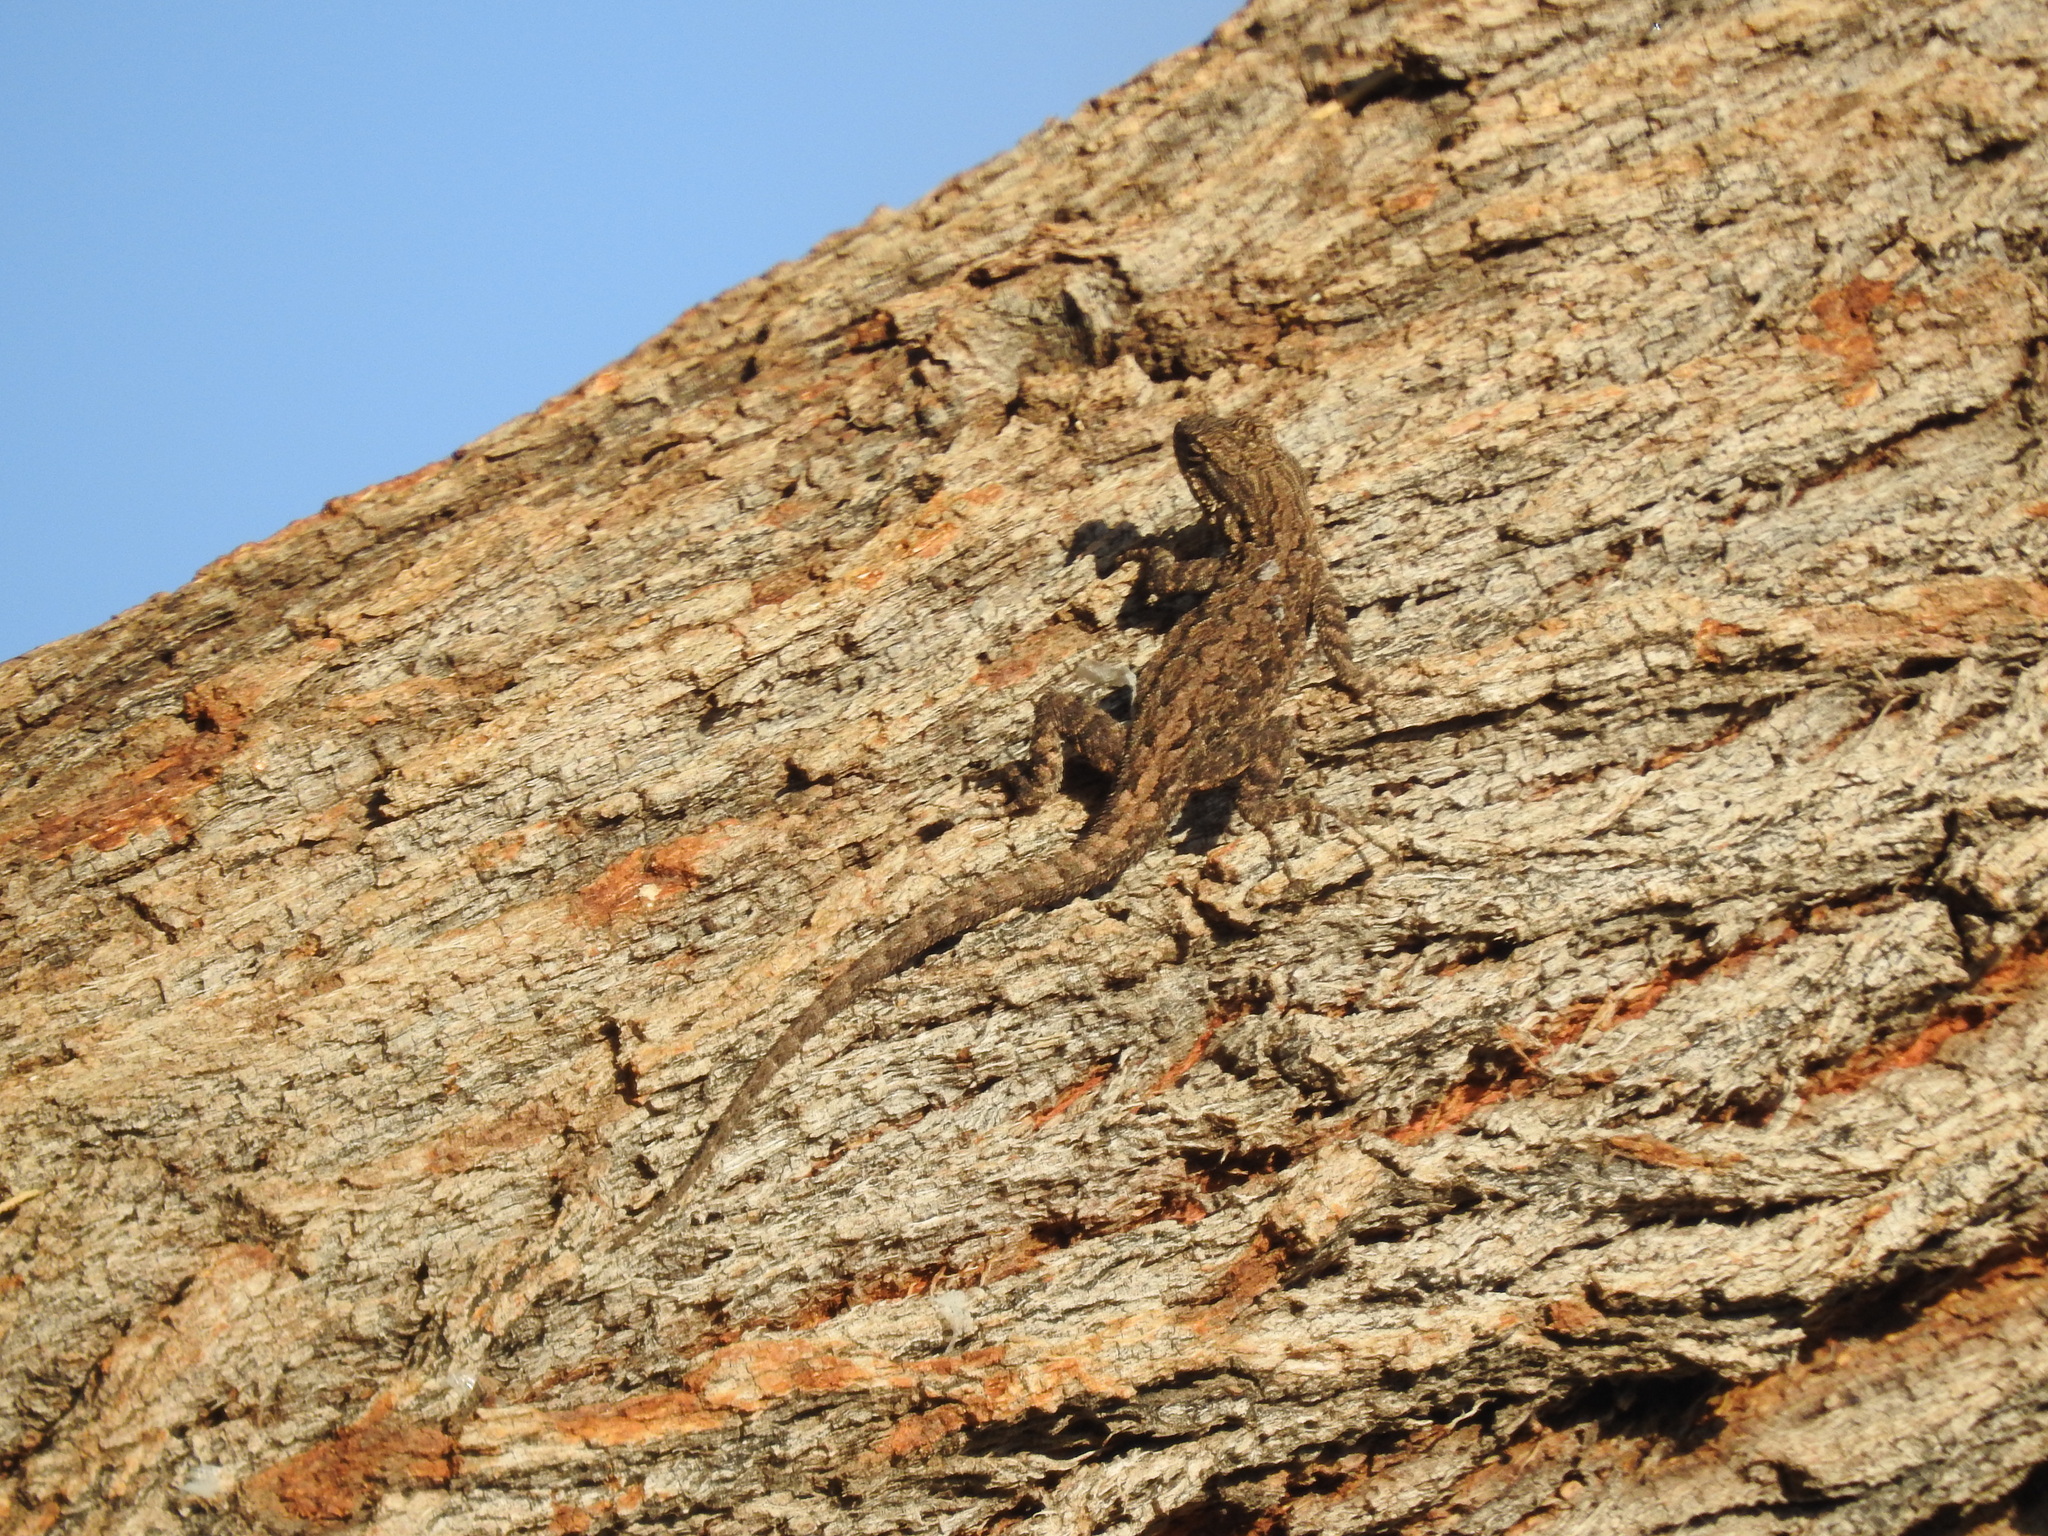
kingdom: Animalia
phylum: Chordata
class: Squamata
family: Phrynosomatidae
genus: Urosaurus
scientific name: Urosaurus ornatus
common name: Ornate tree lizard
